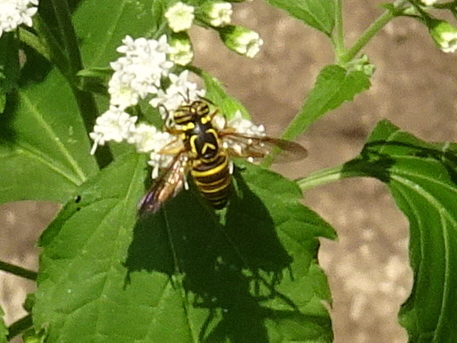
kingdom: Animalia
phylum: Arthropoda
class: Insecta
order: Diptera
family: Syrphidae
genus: Spilomyia
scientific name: Spilomyia longicornis
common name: Eastern hornet fly
